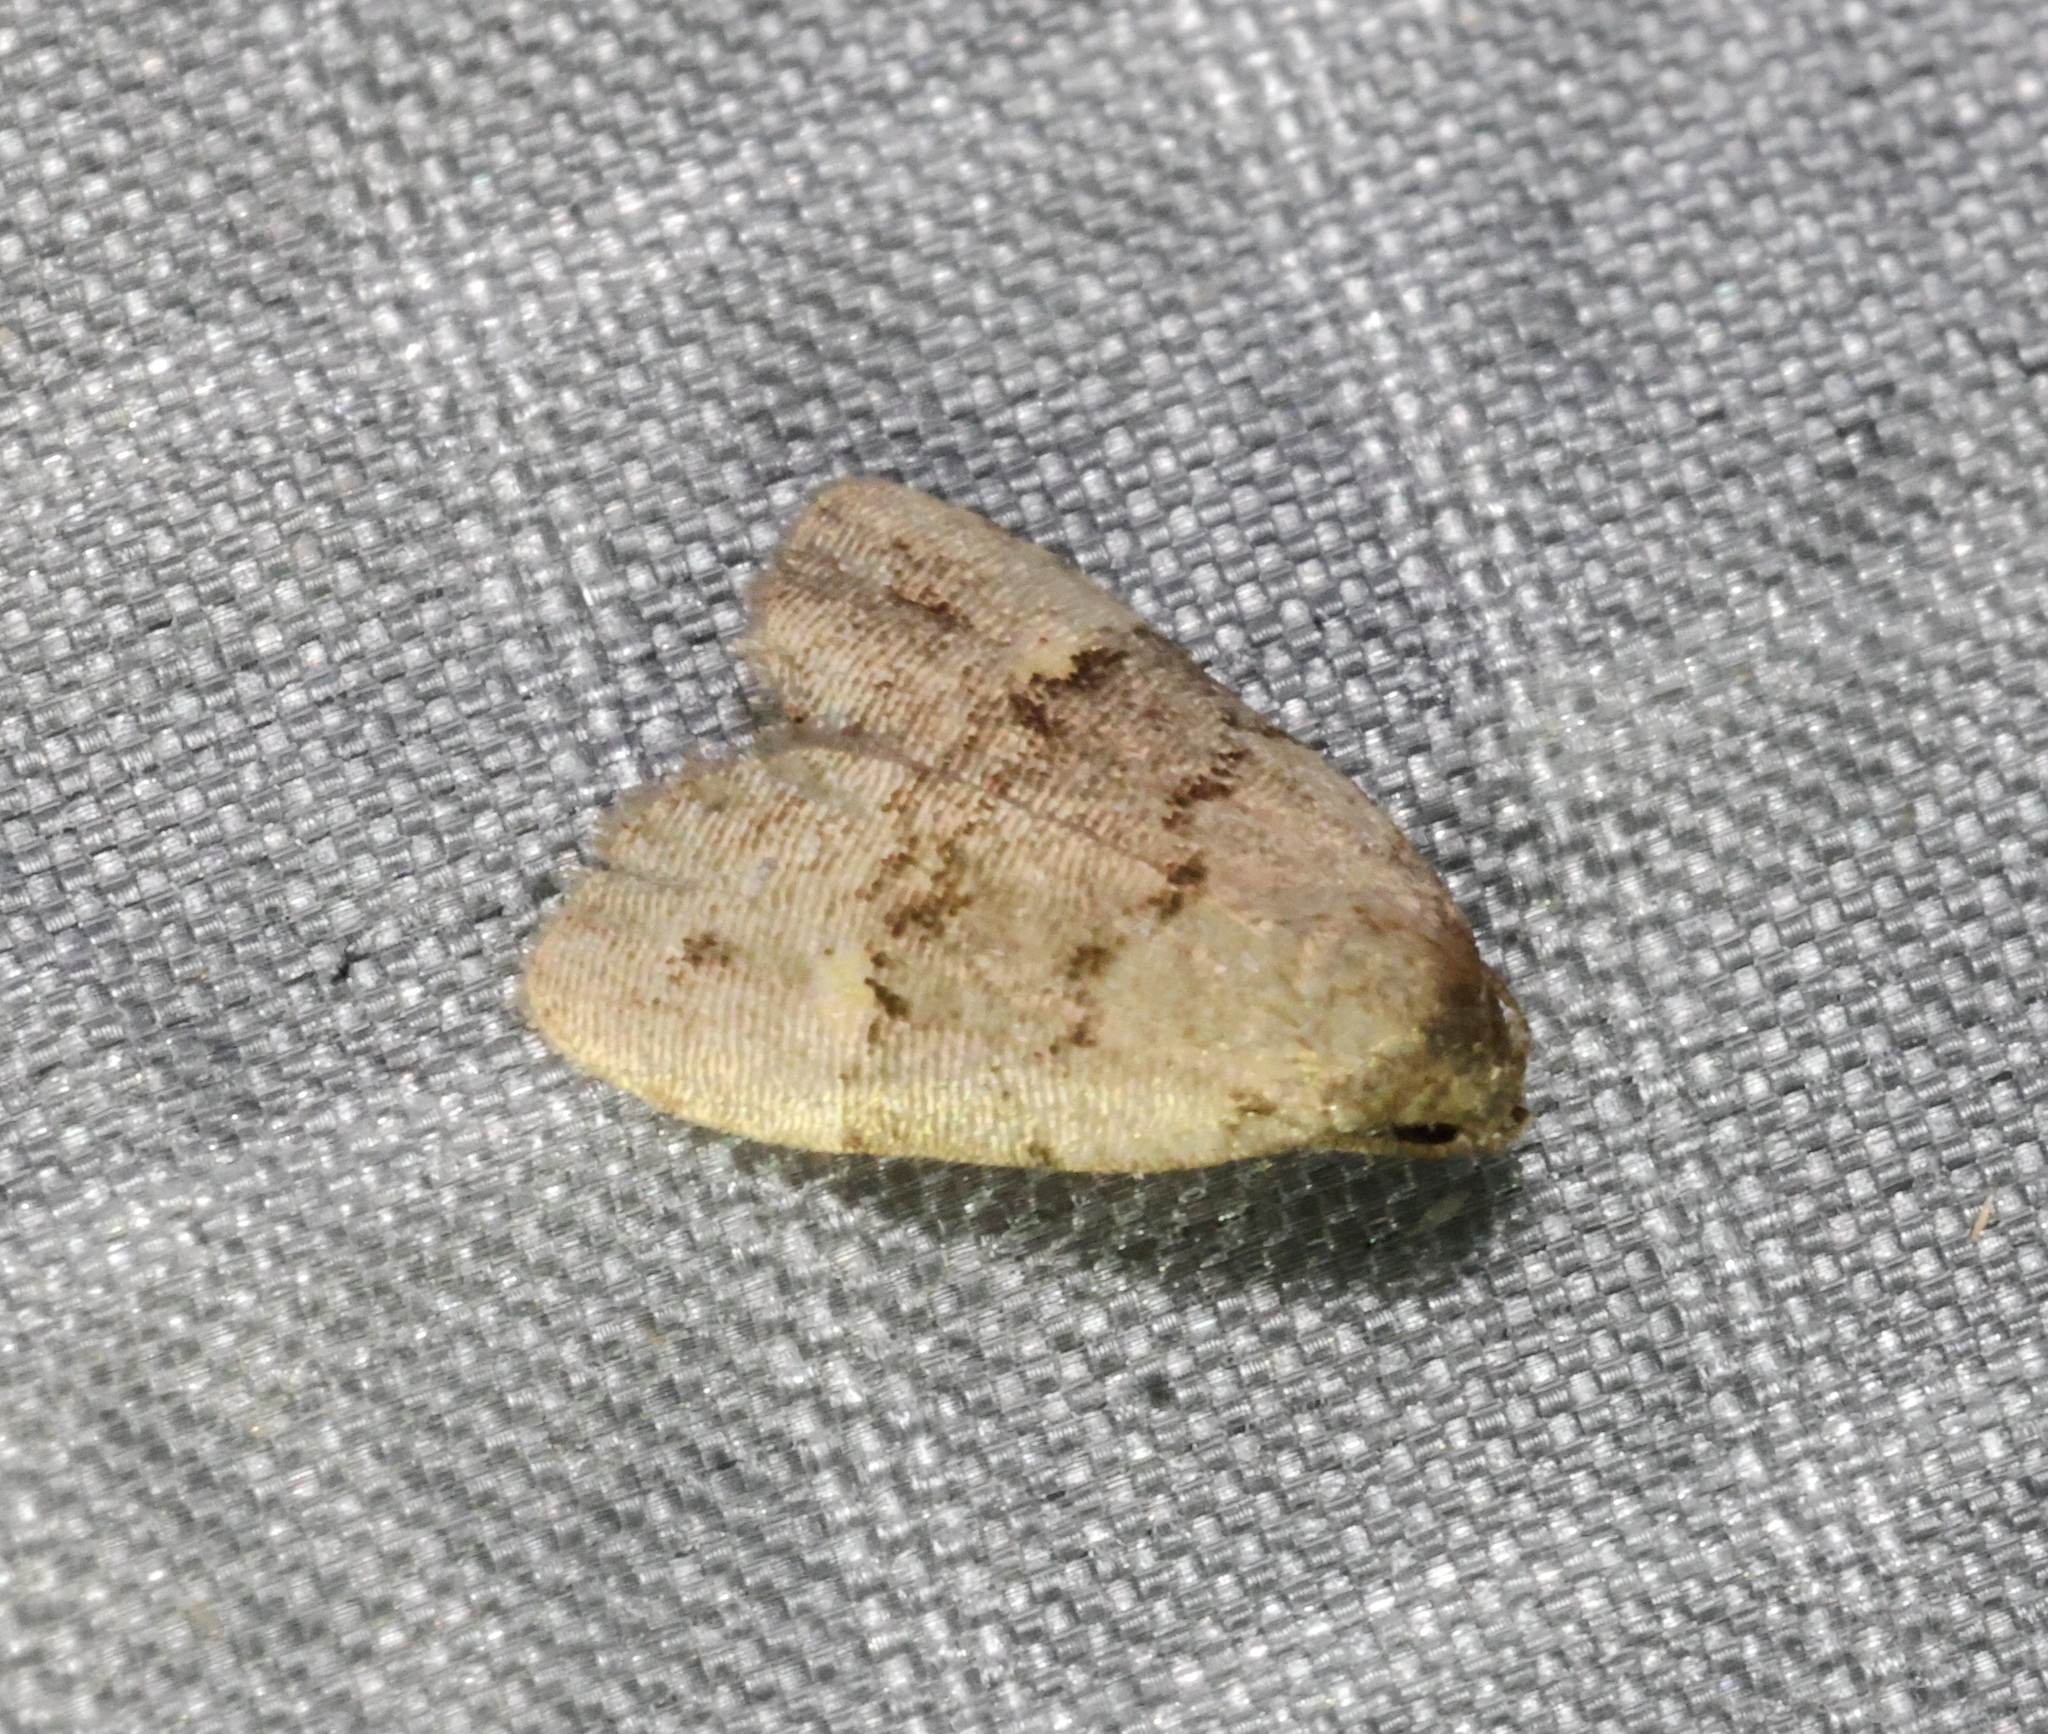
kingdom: Animalia
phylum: Arthropoda
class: Insecta
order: Lepidoptera
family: Erebidae
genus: Fustius
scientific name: Fustius sterlingi
